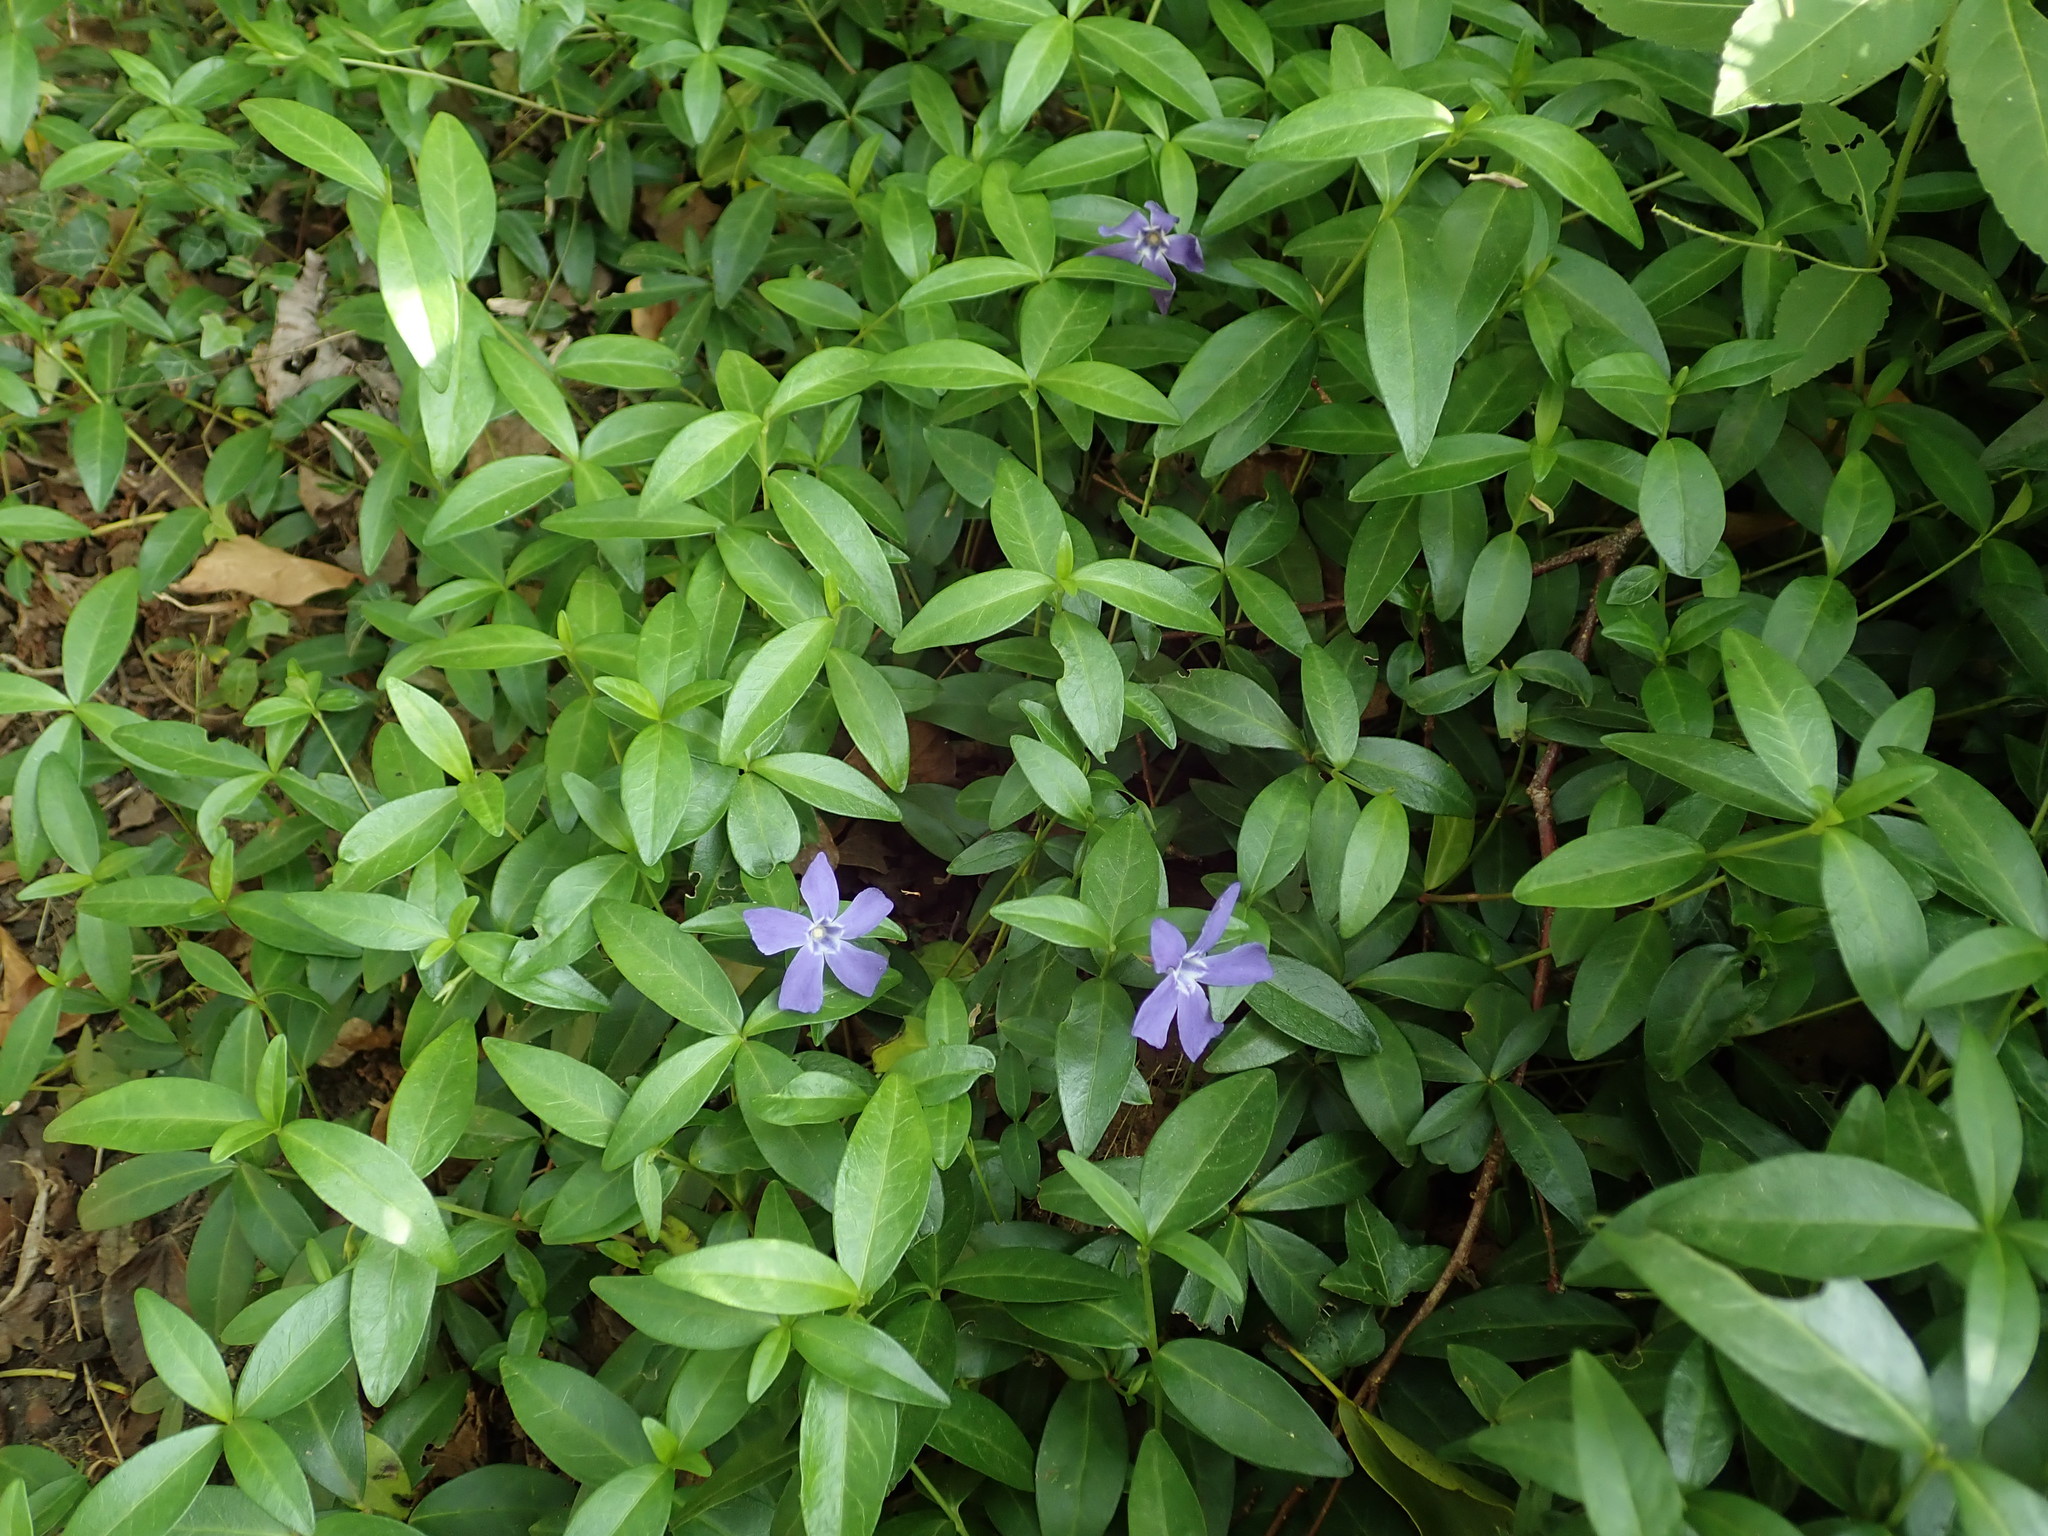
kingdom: Plantae
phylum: Tracheophyta
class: Magnoliopsida
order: Gentianales
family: Apocynaceae
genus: Vinca
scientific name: Vinca minor
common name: Lesser periwinkle
